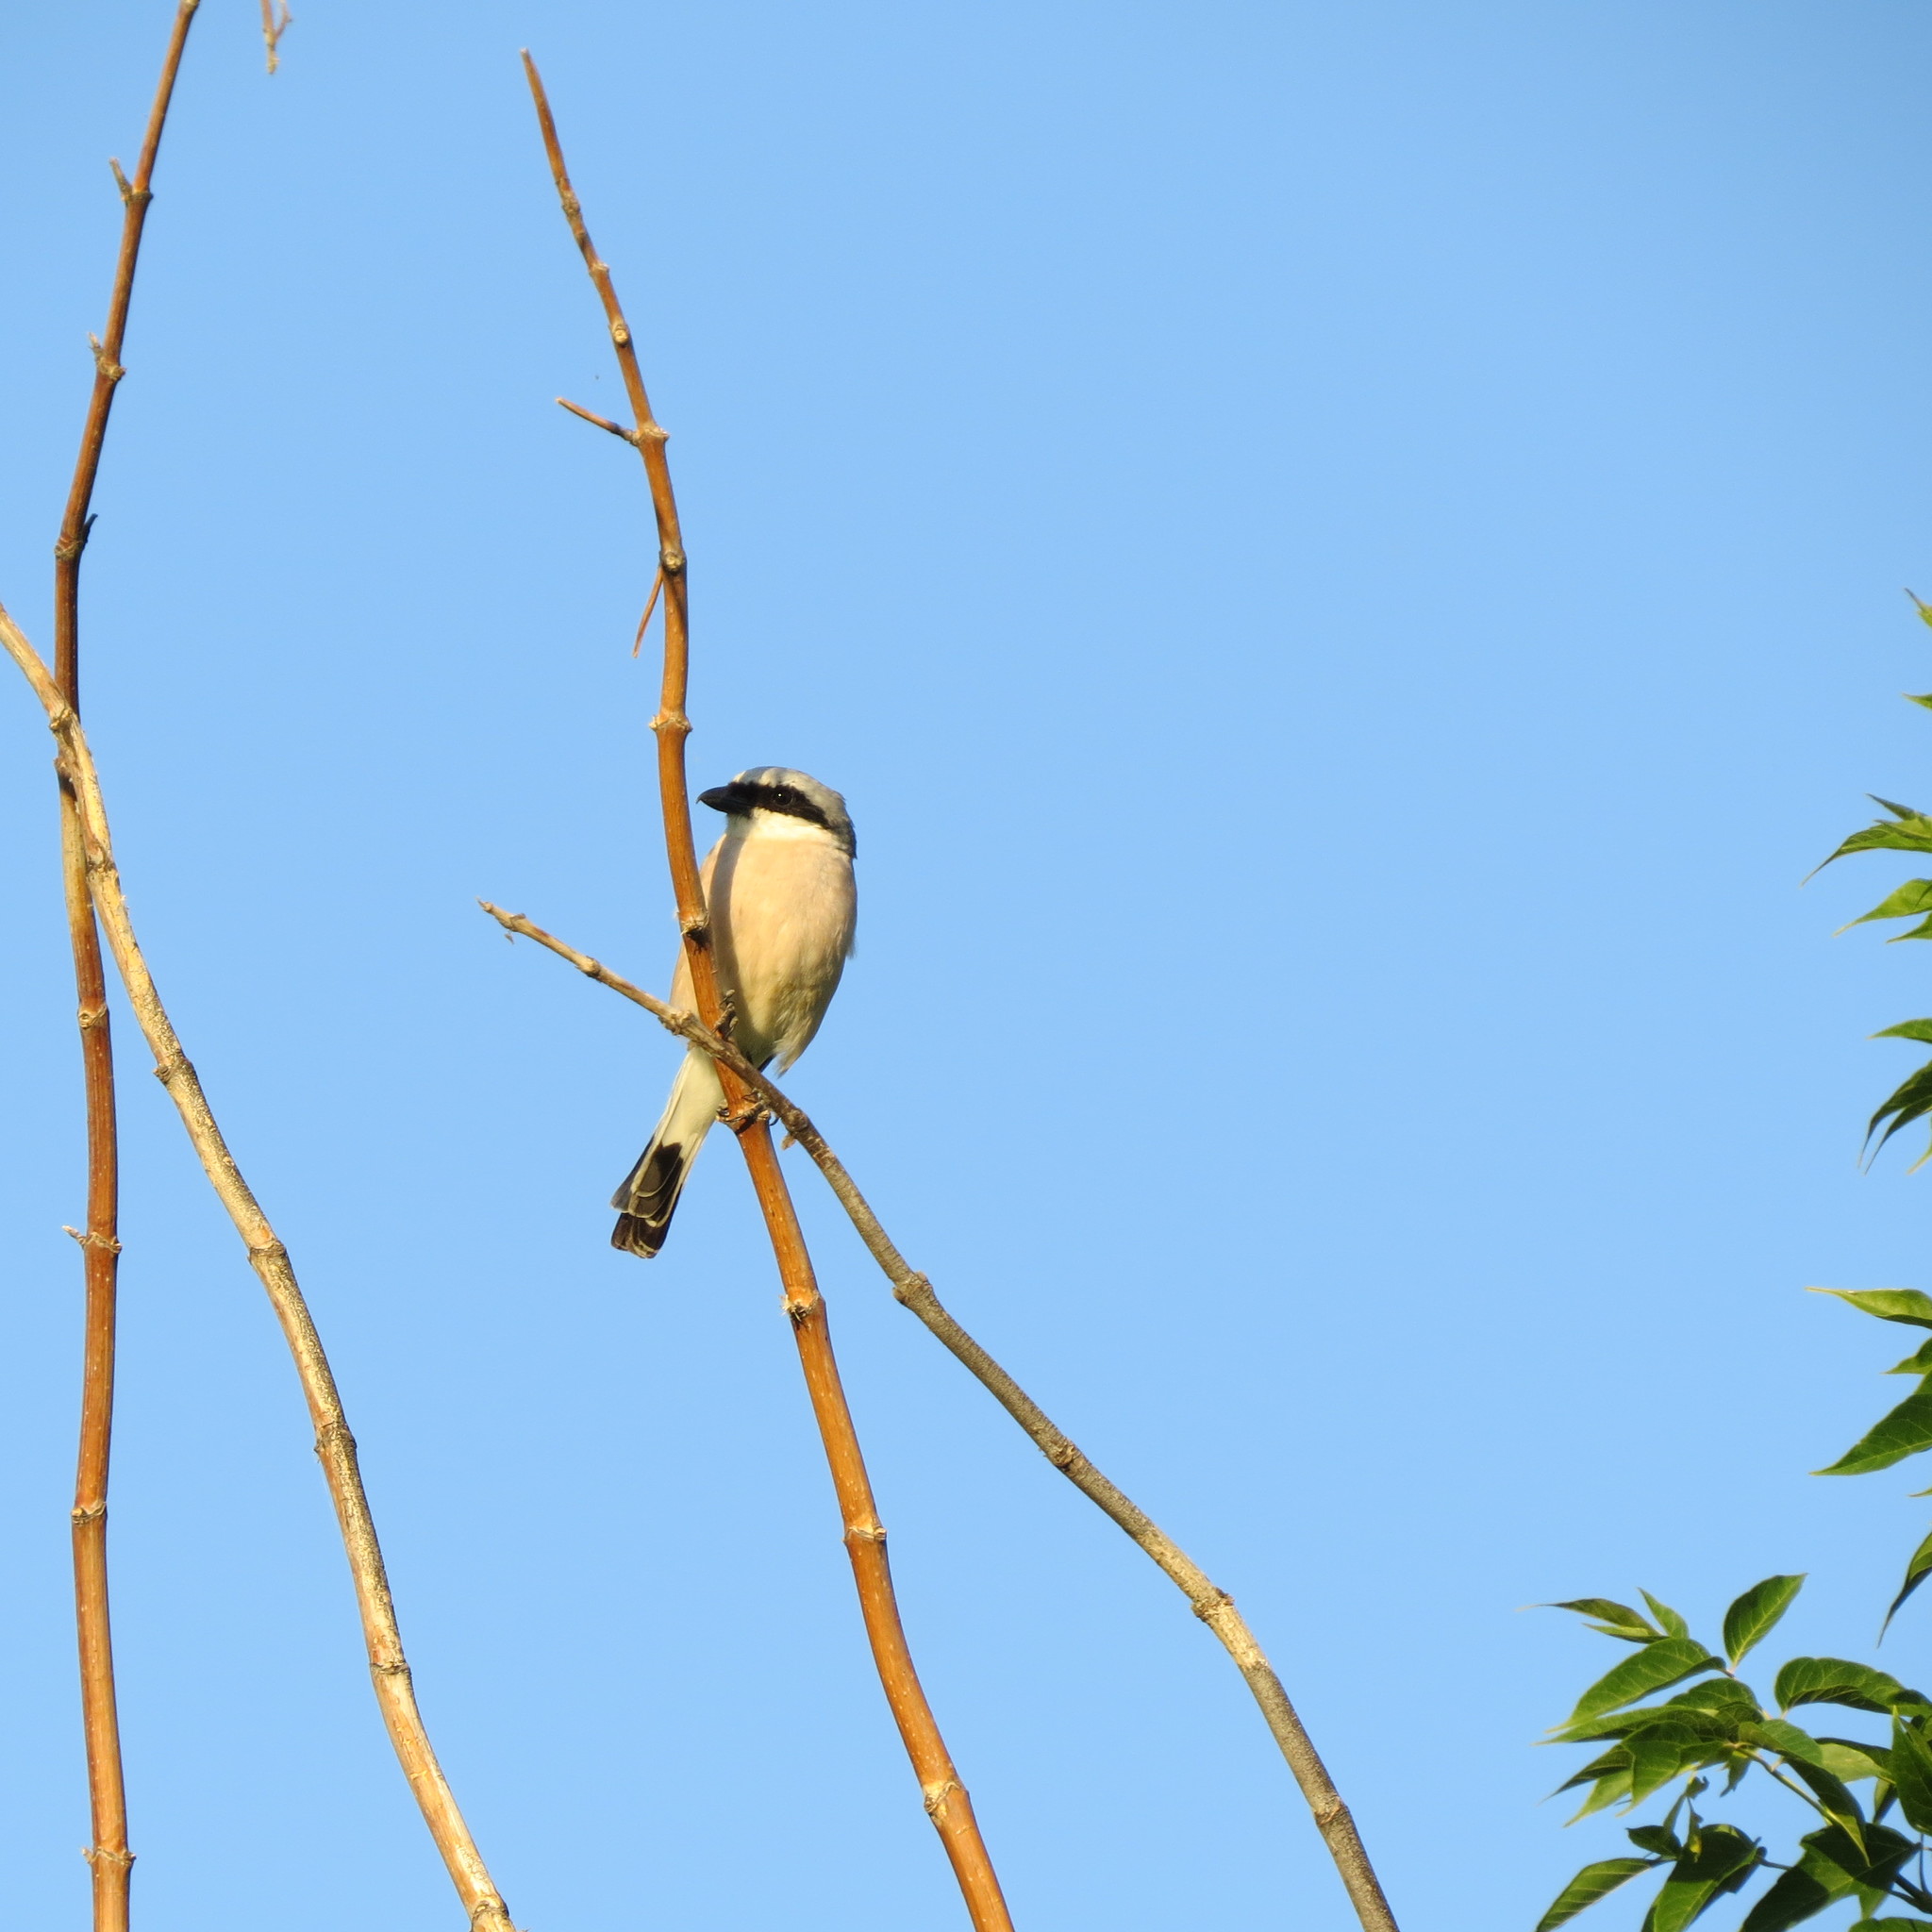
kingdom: Animalia
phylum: Chordata
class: Aves
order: Passeriformes
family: Laniidae
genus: Lanius
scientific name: Lanius collurio
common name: Red-backed shrike
